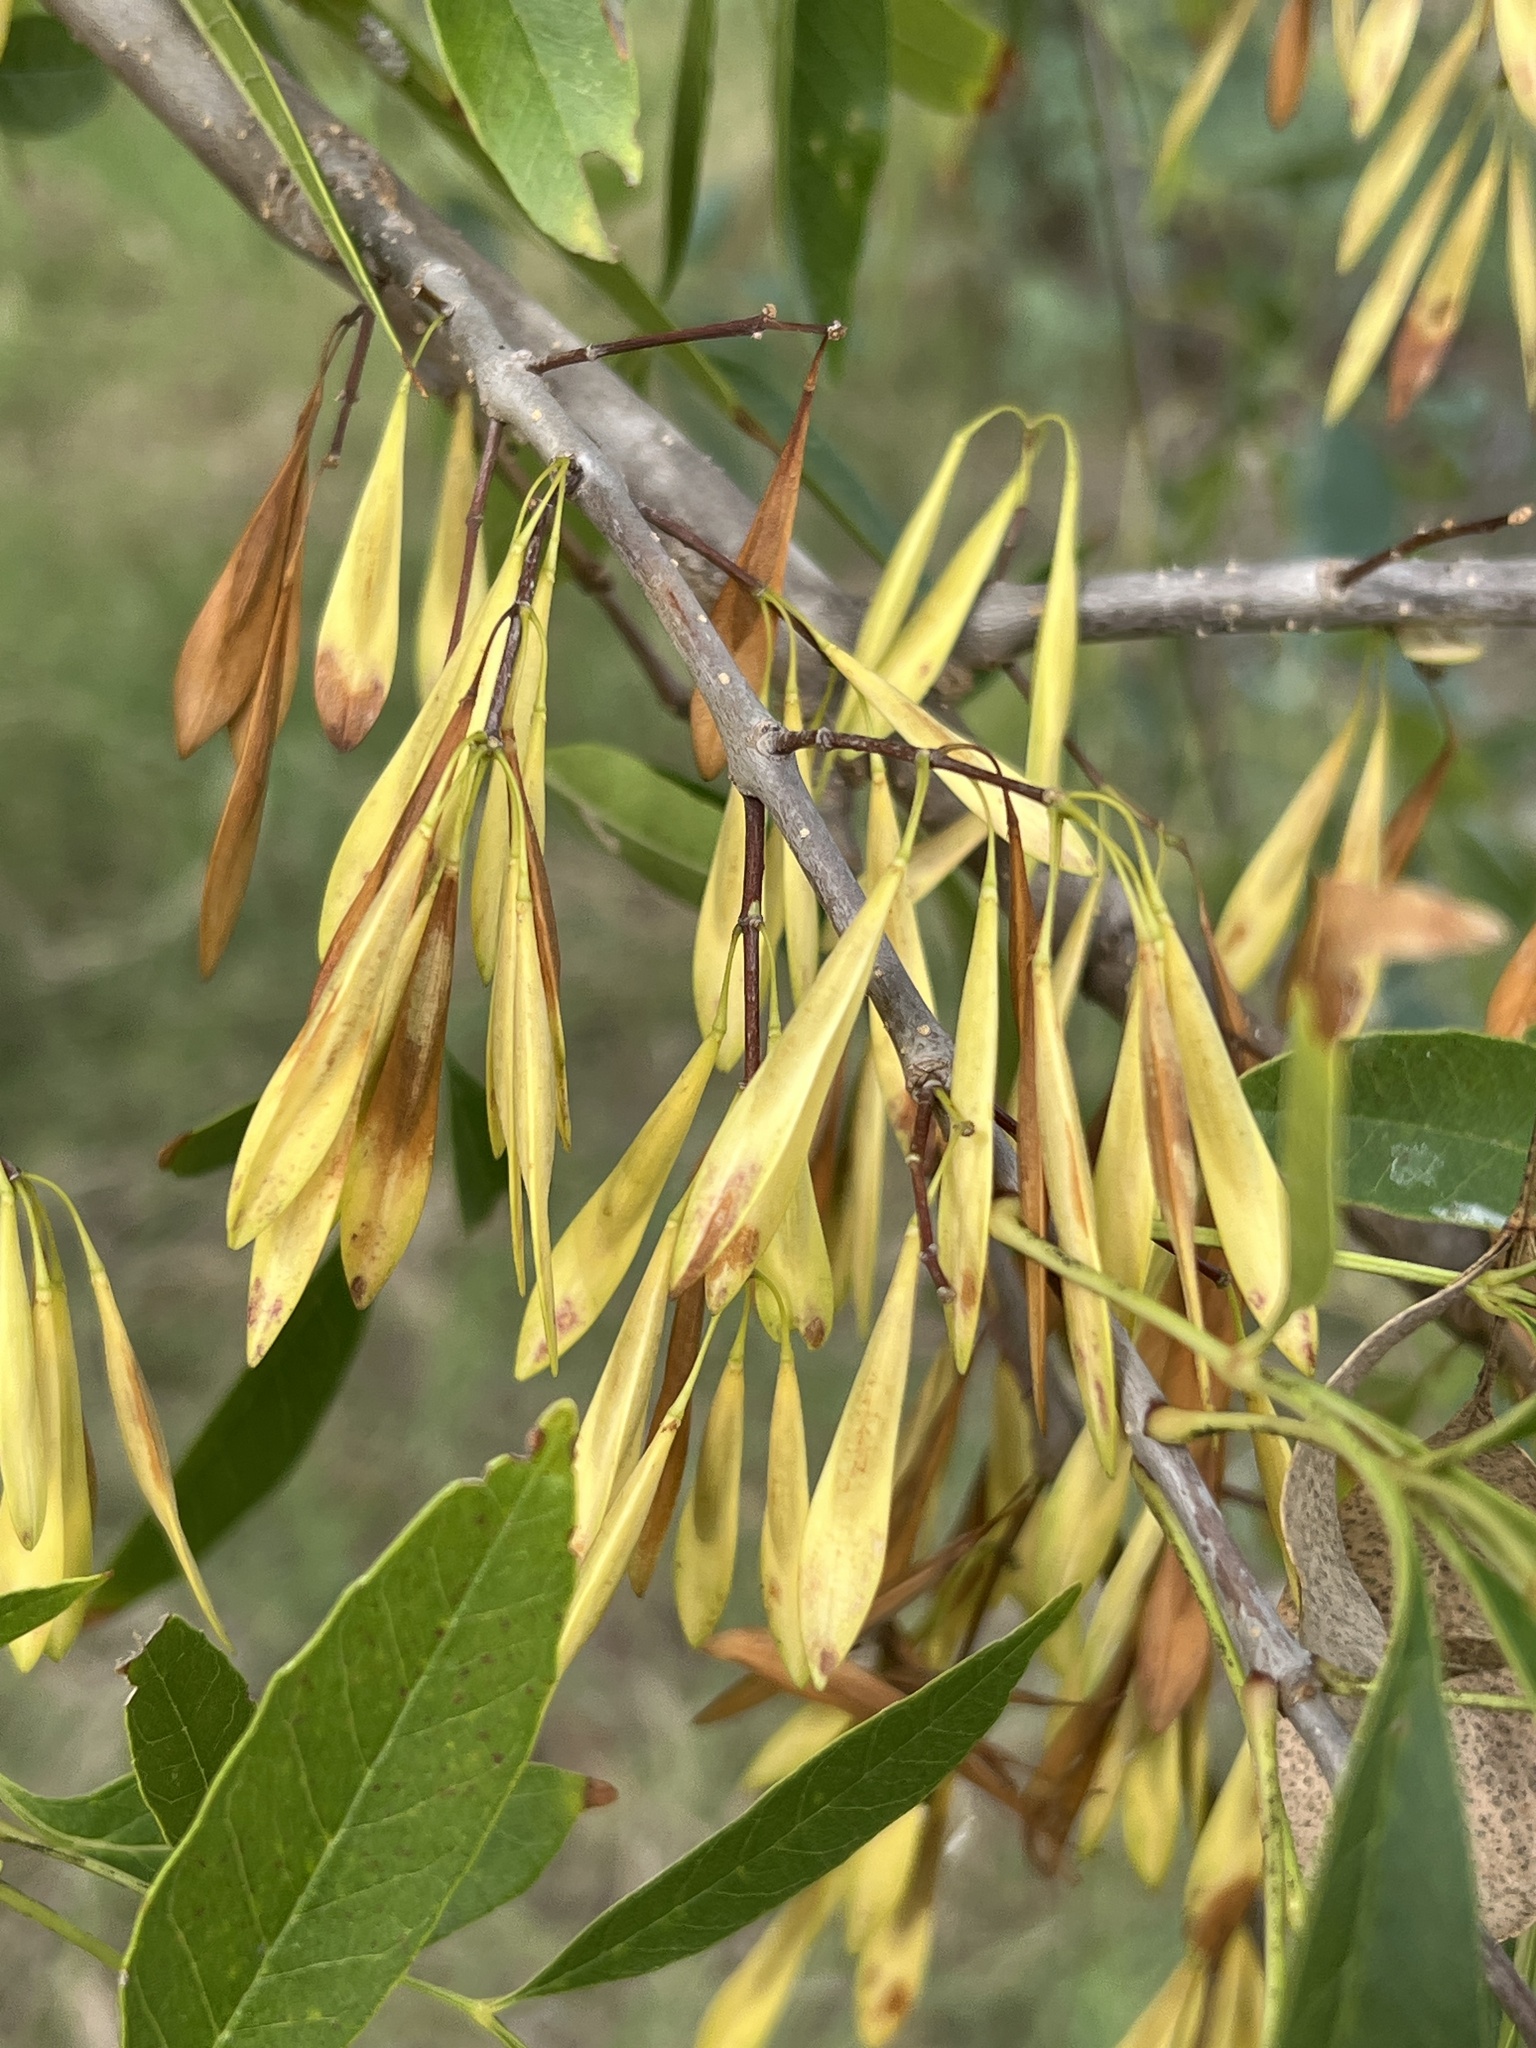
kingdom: Plantae
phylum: Tracheophyta
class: Magnoliopsida
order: Lamiales
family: Oleaceae
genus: Fraxinus
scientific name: Fraxinus berlandieriana
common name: Berlandier ash
